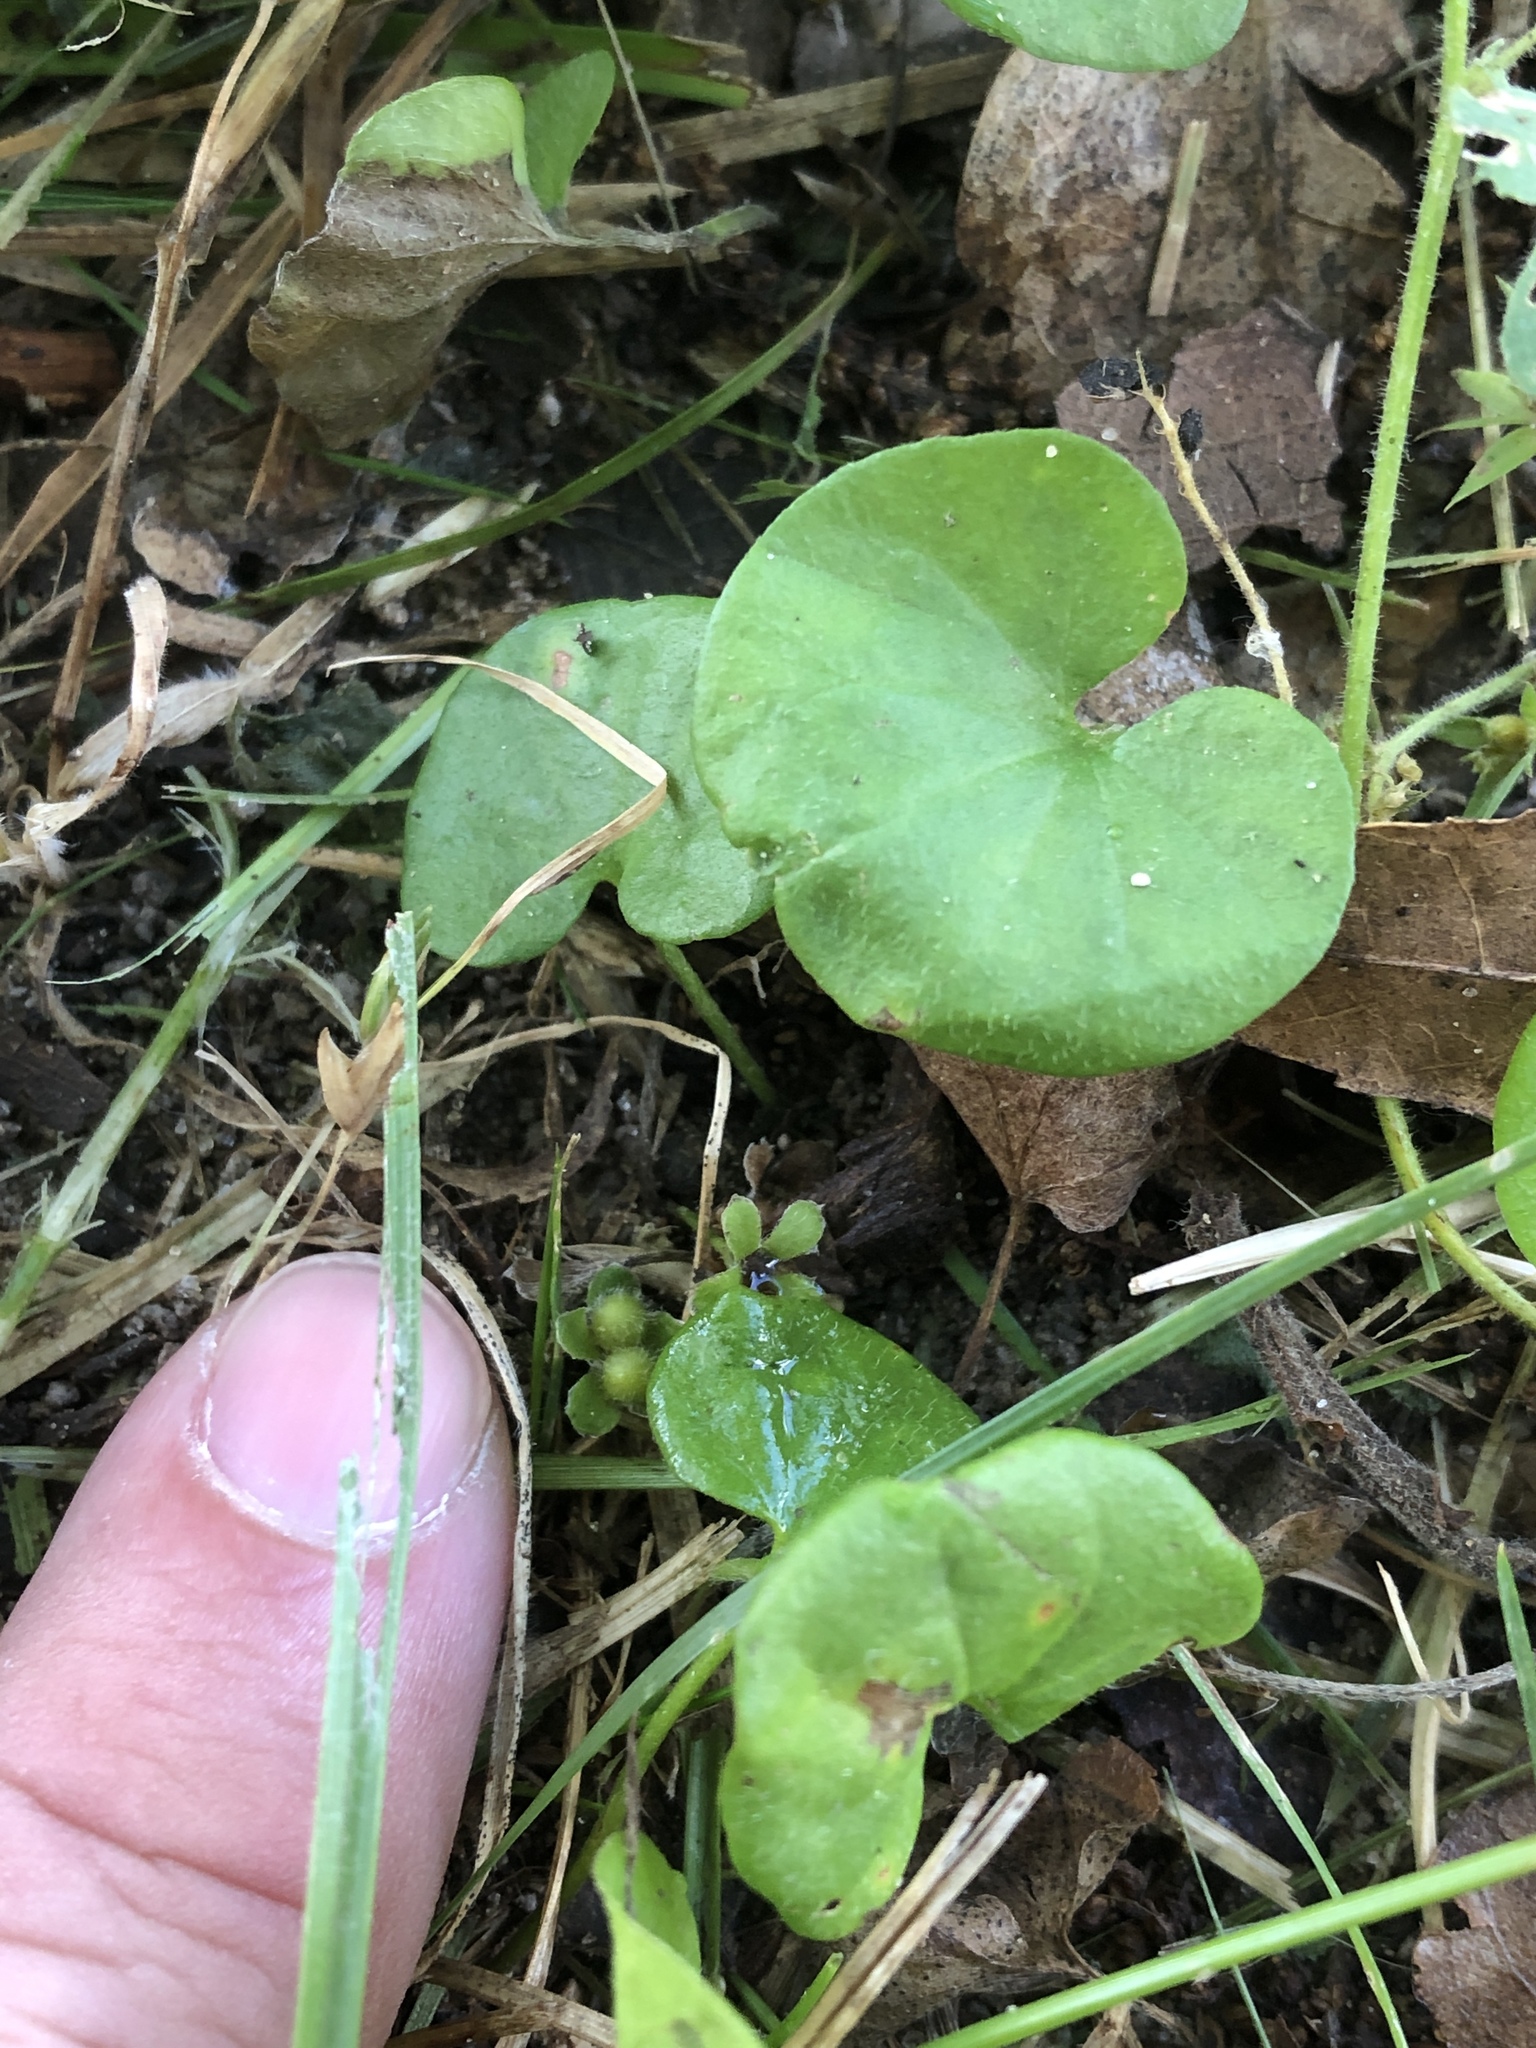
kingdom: Plantae
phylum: Tracheophyta
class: Magnoliopsida
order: Solanales
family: Convolvulaceae
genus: Dichondra
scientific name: Dichondra carolinensis
